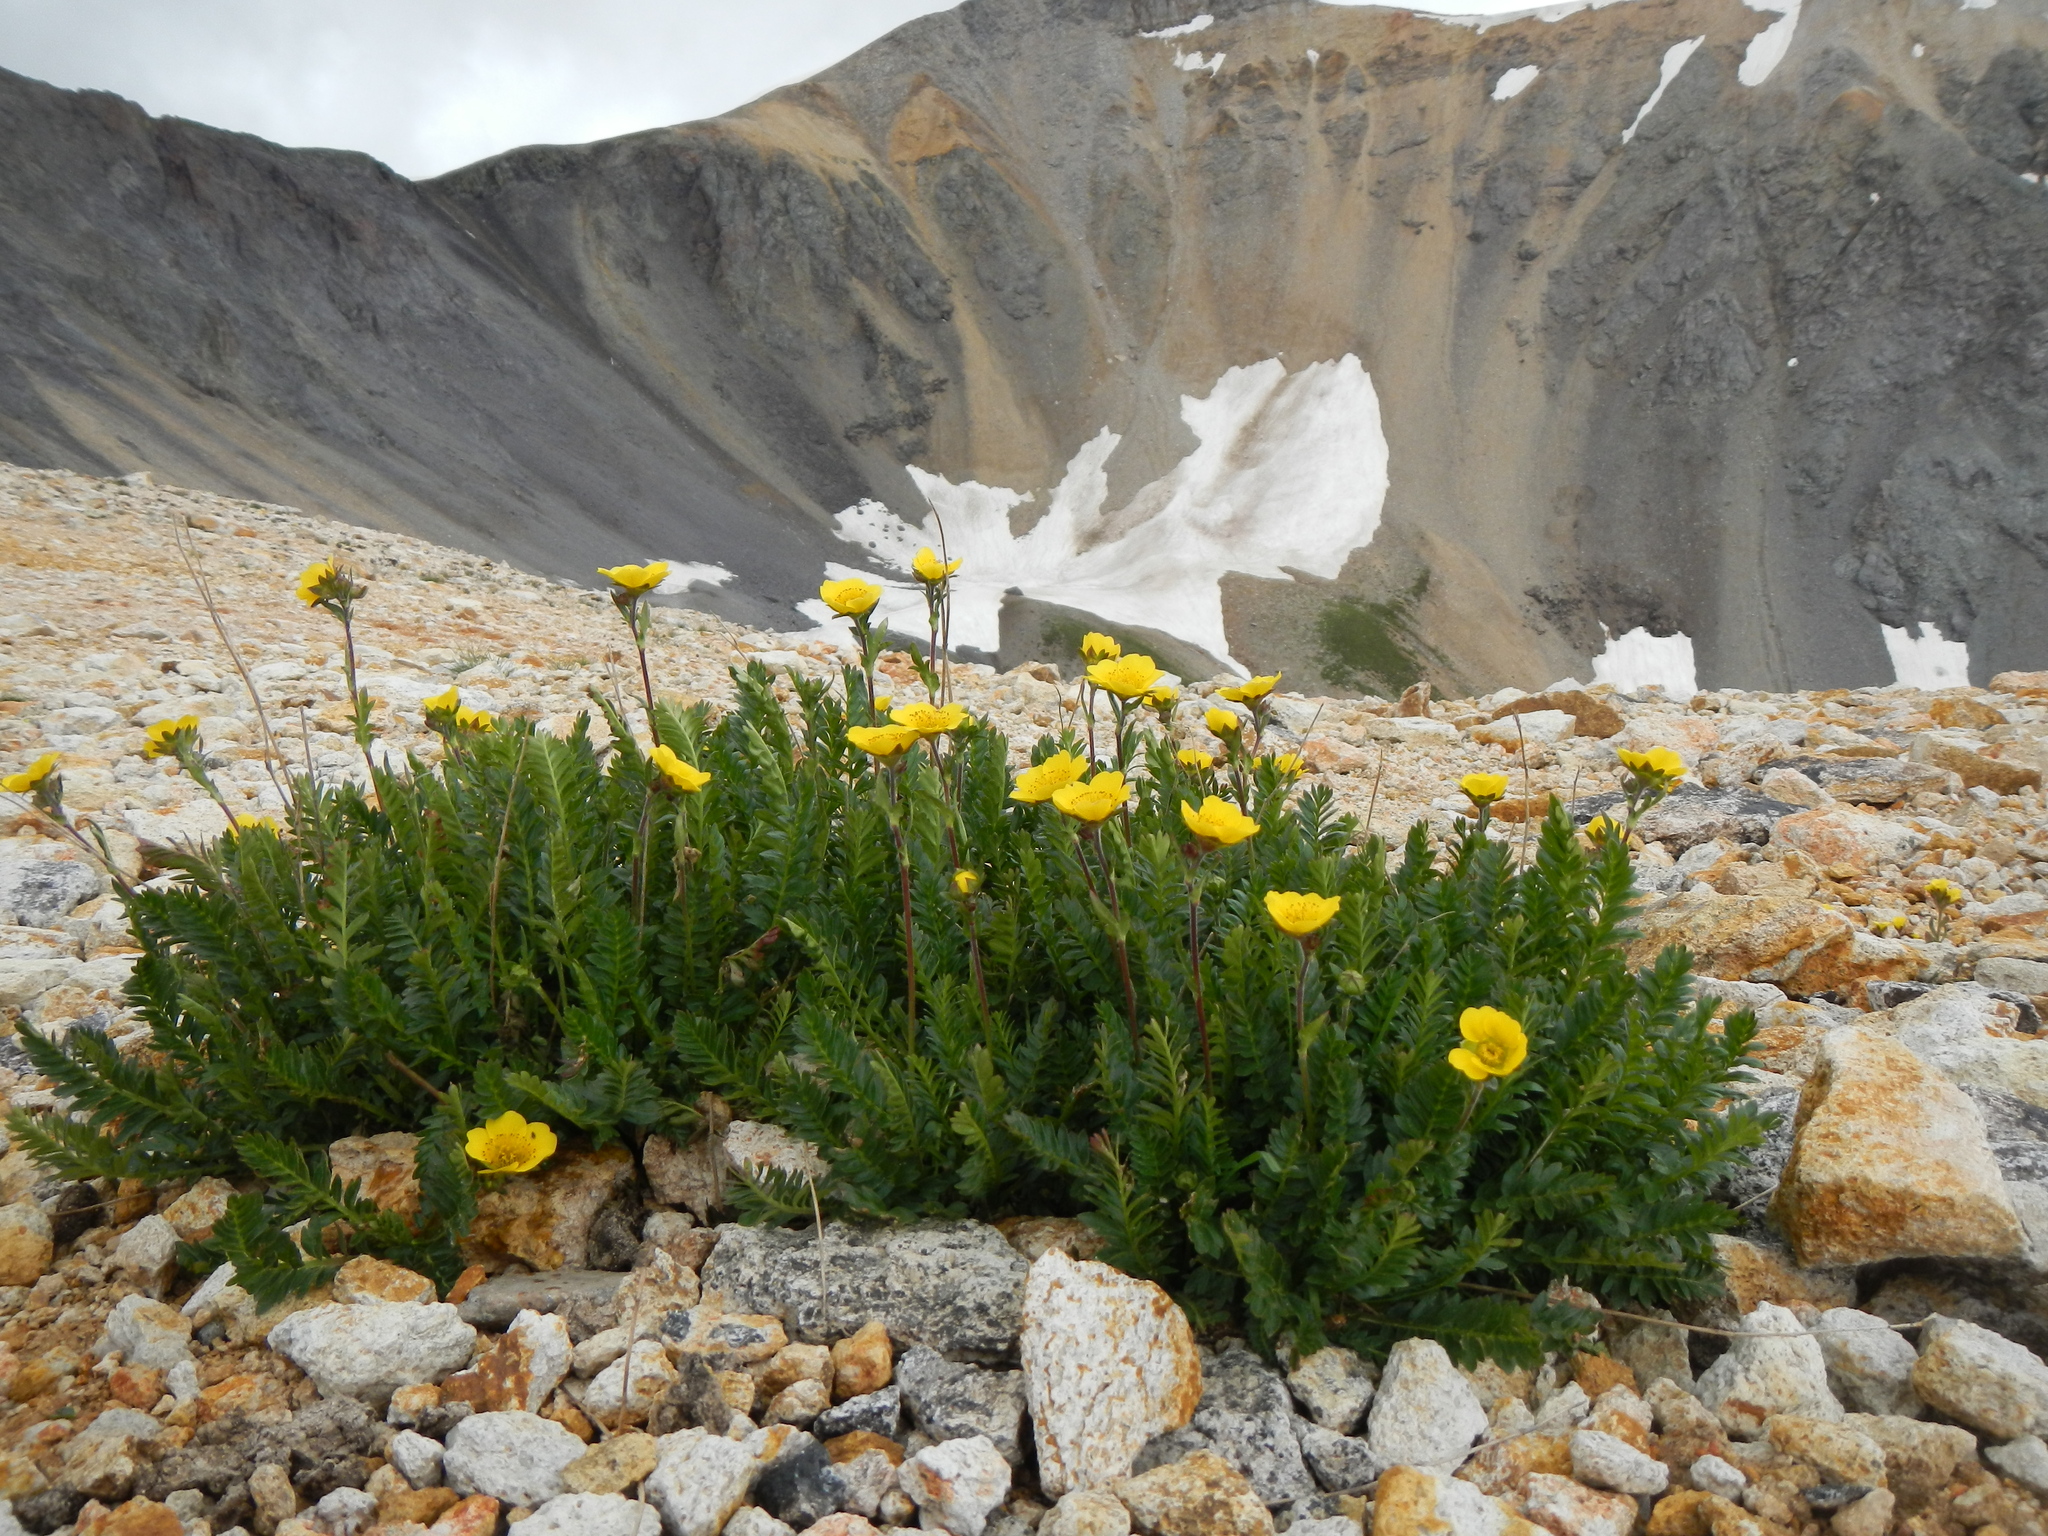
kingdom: Plantae
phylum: Tracheophyta
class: Magnoliopsida
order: Rosales
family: Rosaceae
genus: Geum
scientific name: Geum rossii
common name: Alpine avens
